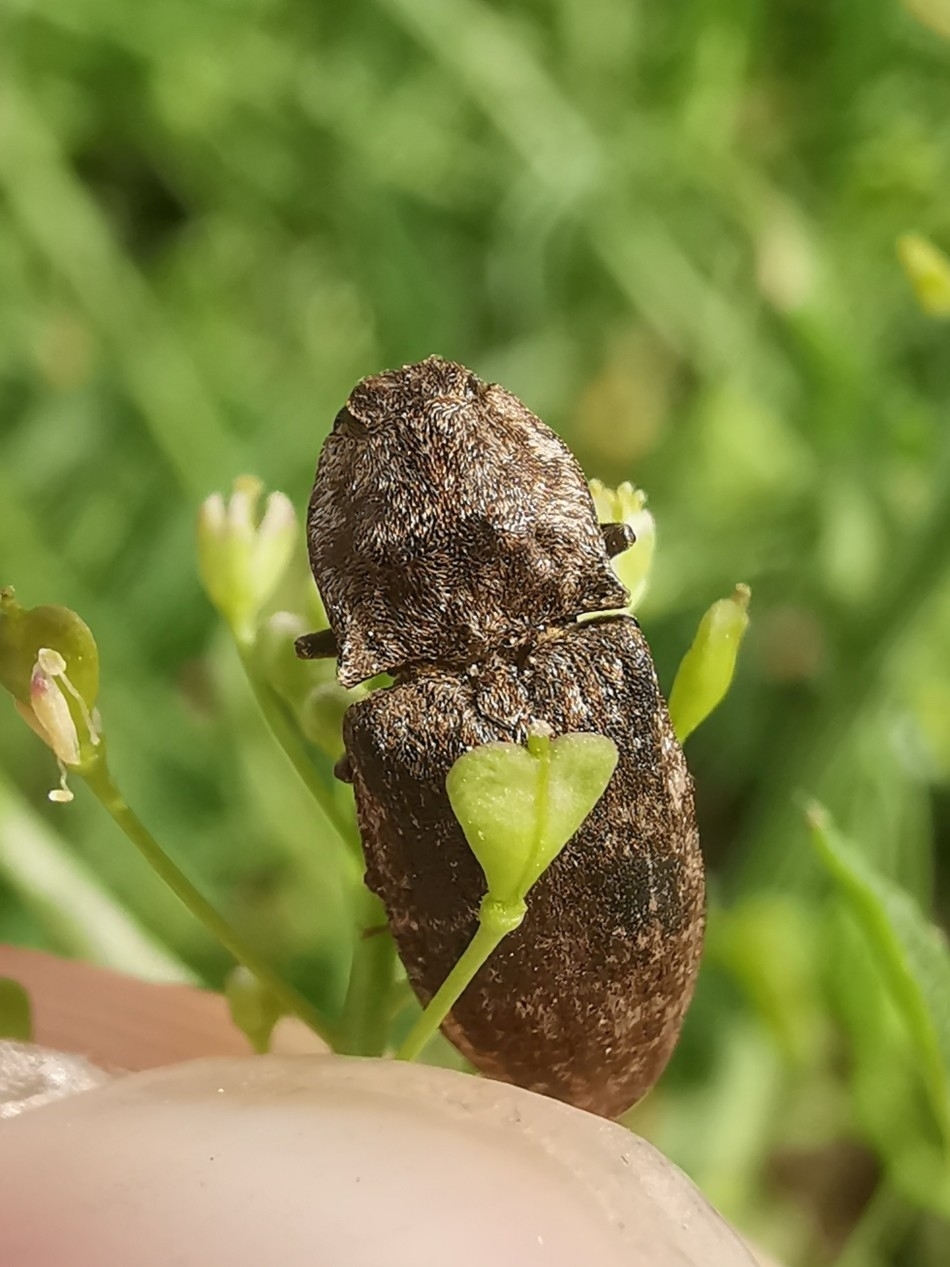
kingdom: Animalia
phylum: Arthropoda
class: Insecta
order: Coleoptera
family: Elateridae
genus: Agrypnus
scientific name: Agrypnus murinus
